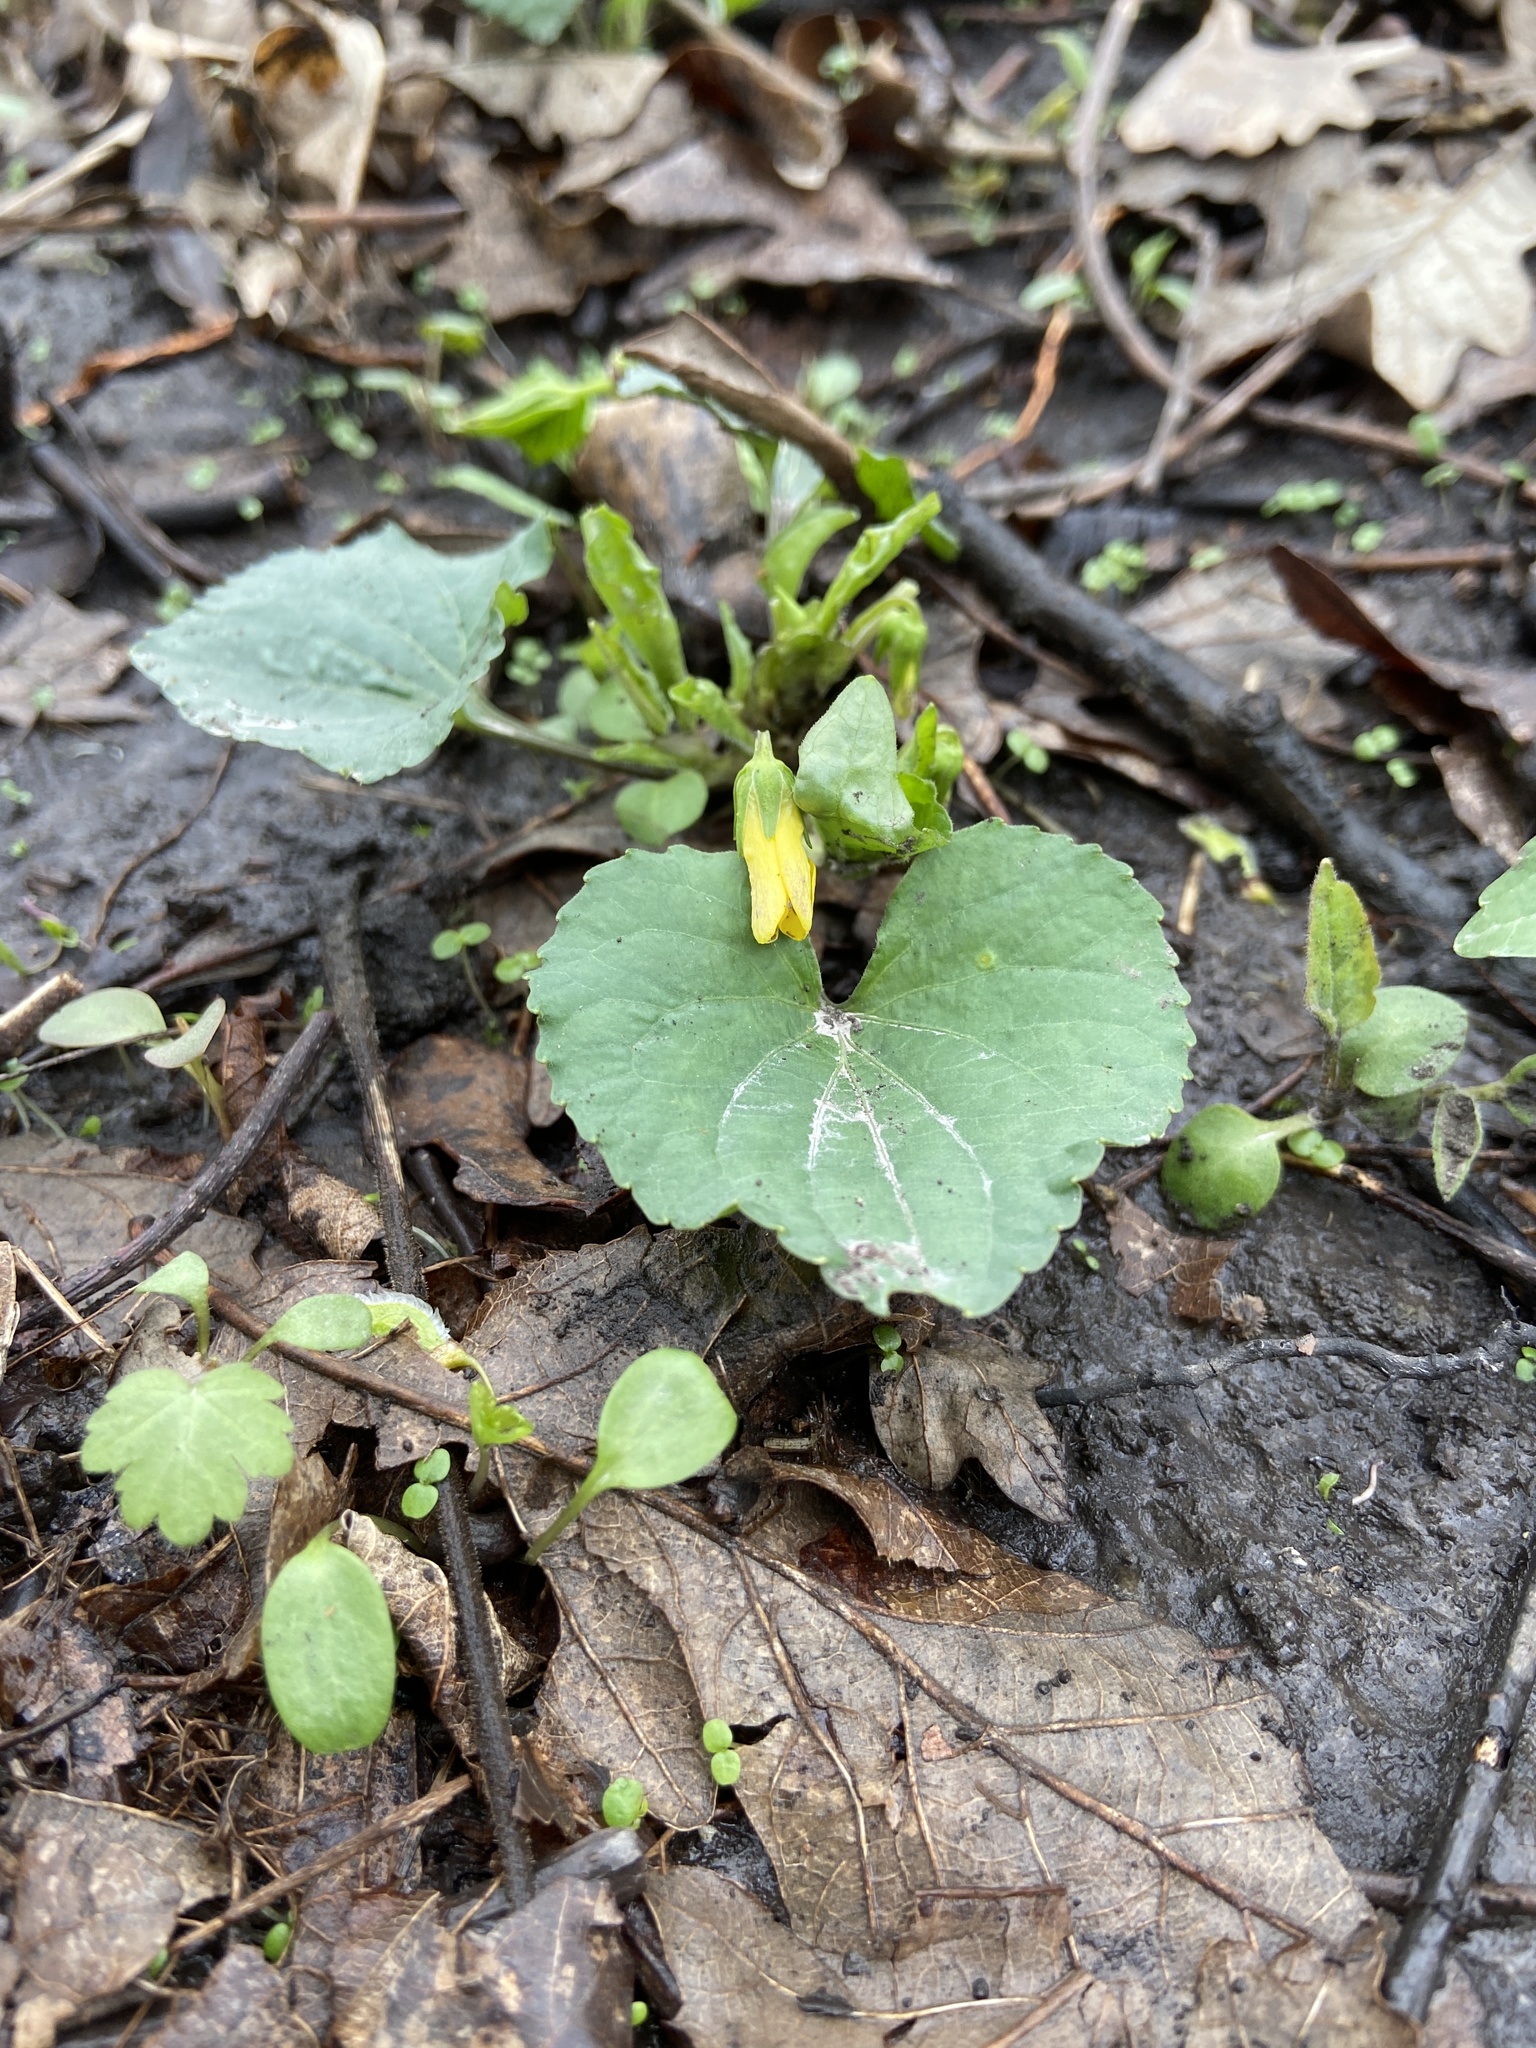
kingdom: Plantae
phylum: Tracheophyta
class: Magnoliopsida
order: Malpighiales
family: Violaceae
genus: Viola
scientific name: Viola eriocarpa
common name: Smooth yellow violet
